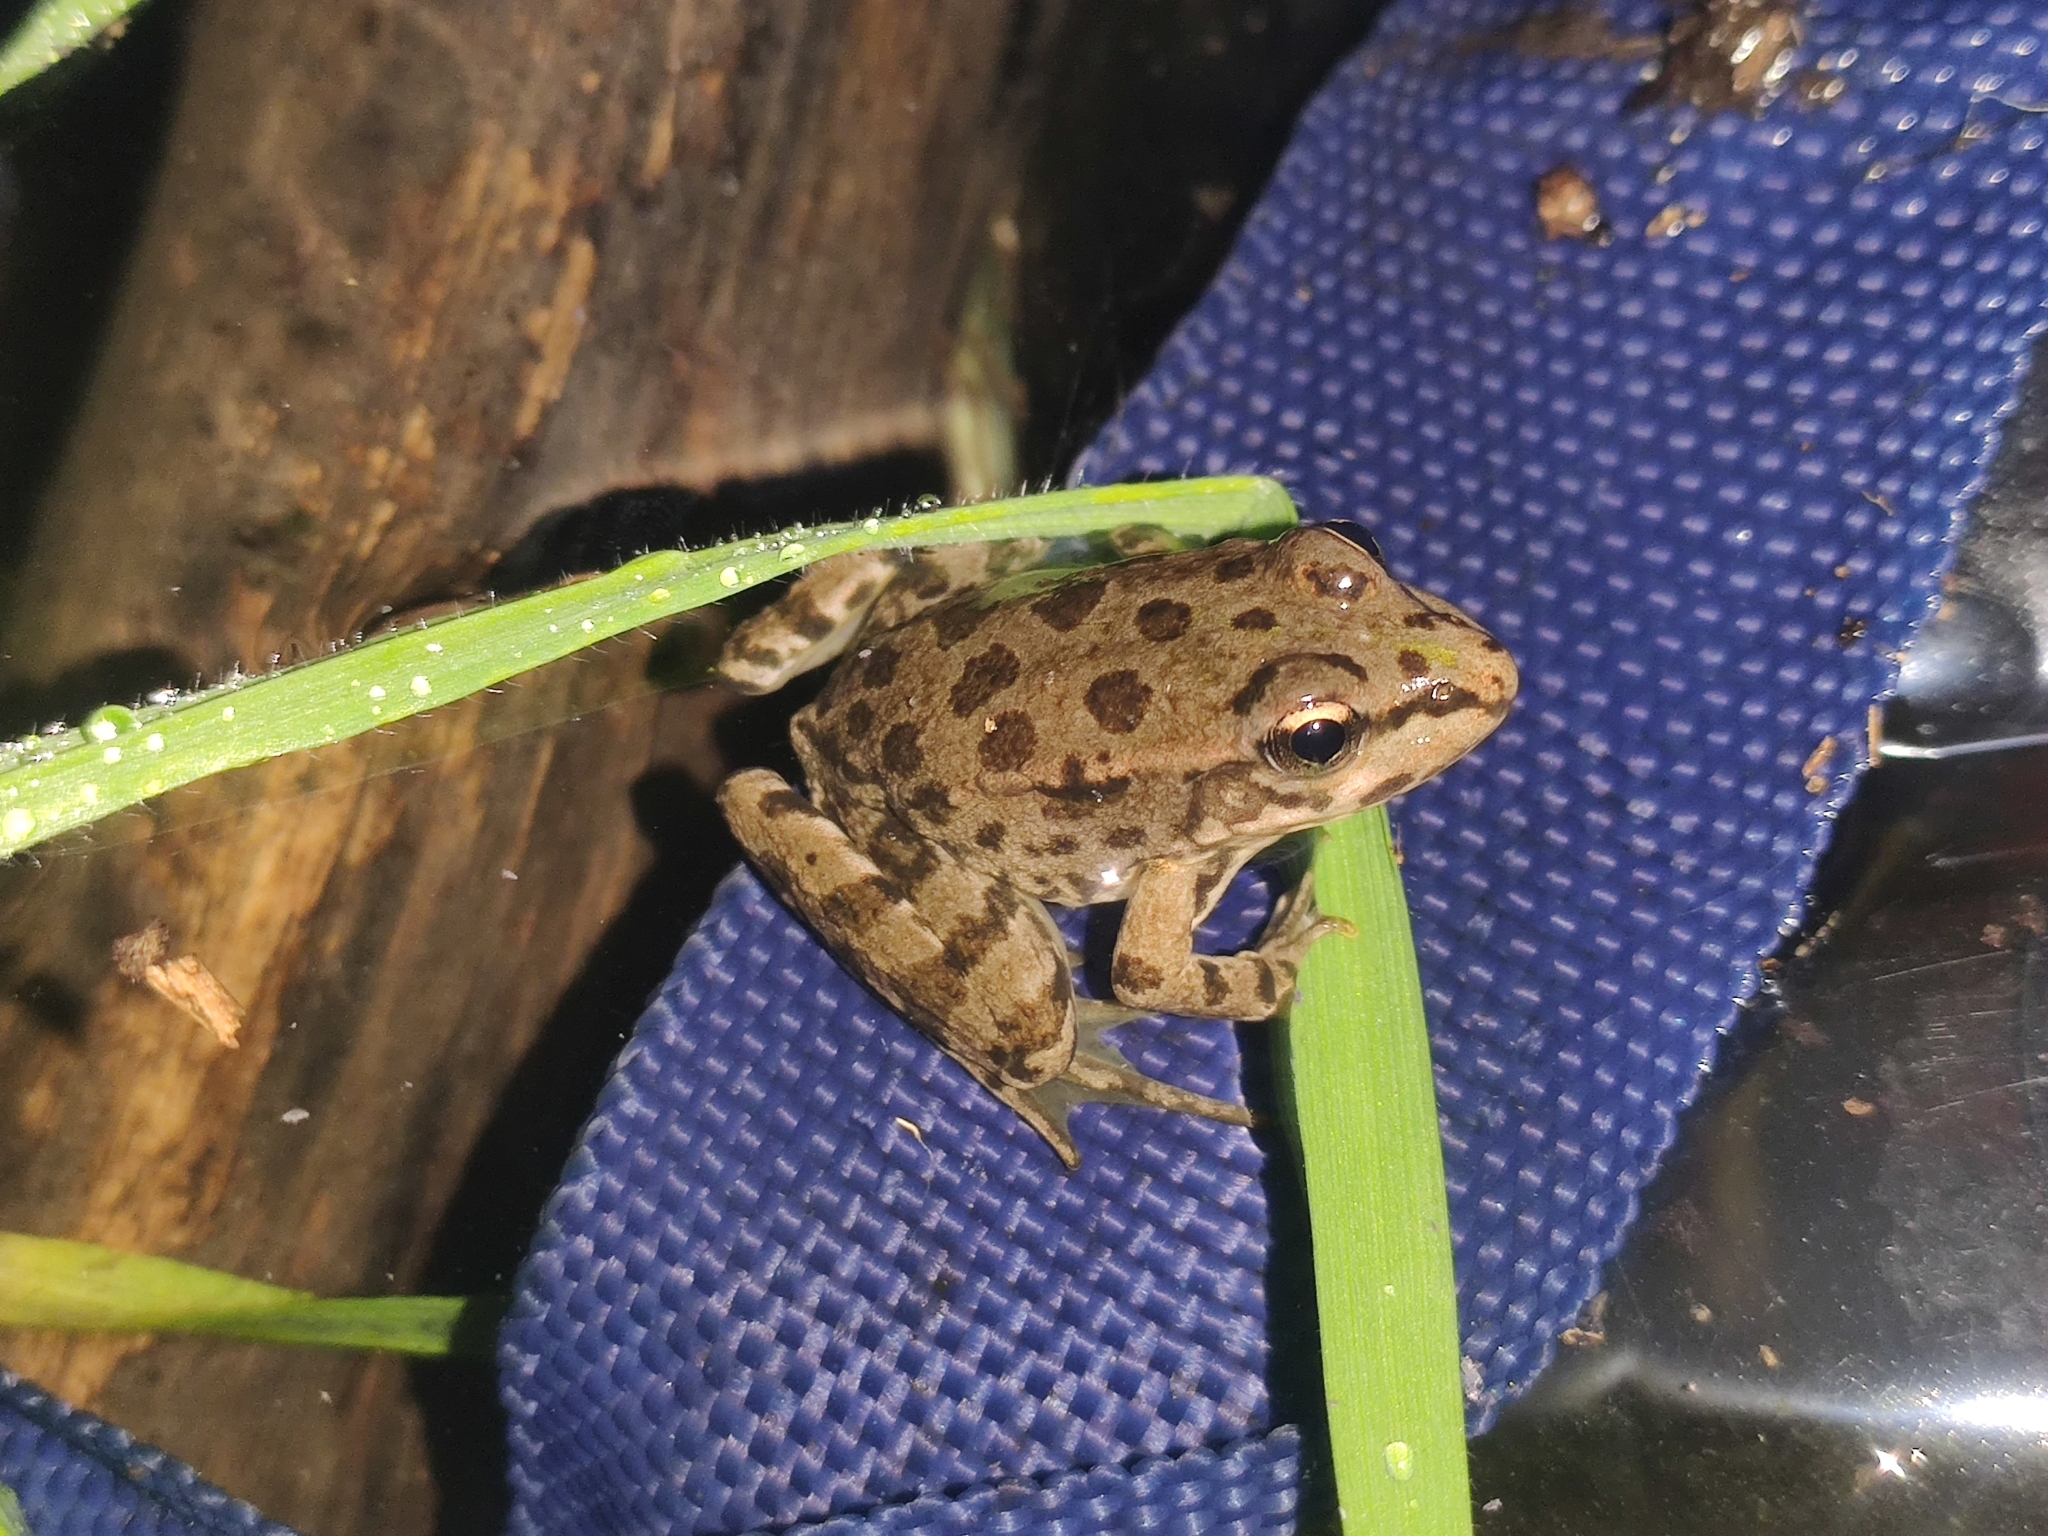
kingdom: Animalia
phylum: Chordata
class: Amphibia
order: Anura
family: Ranidae
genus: Pelophylax
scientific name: Pelophylax perezi
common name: Perez's frog
